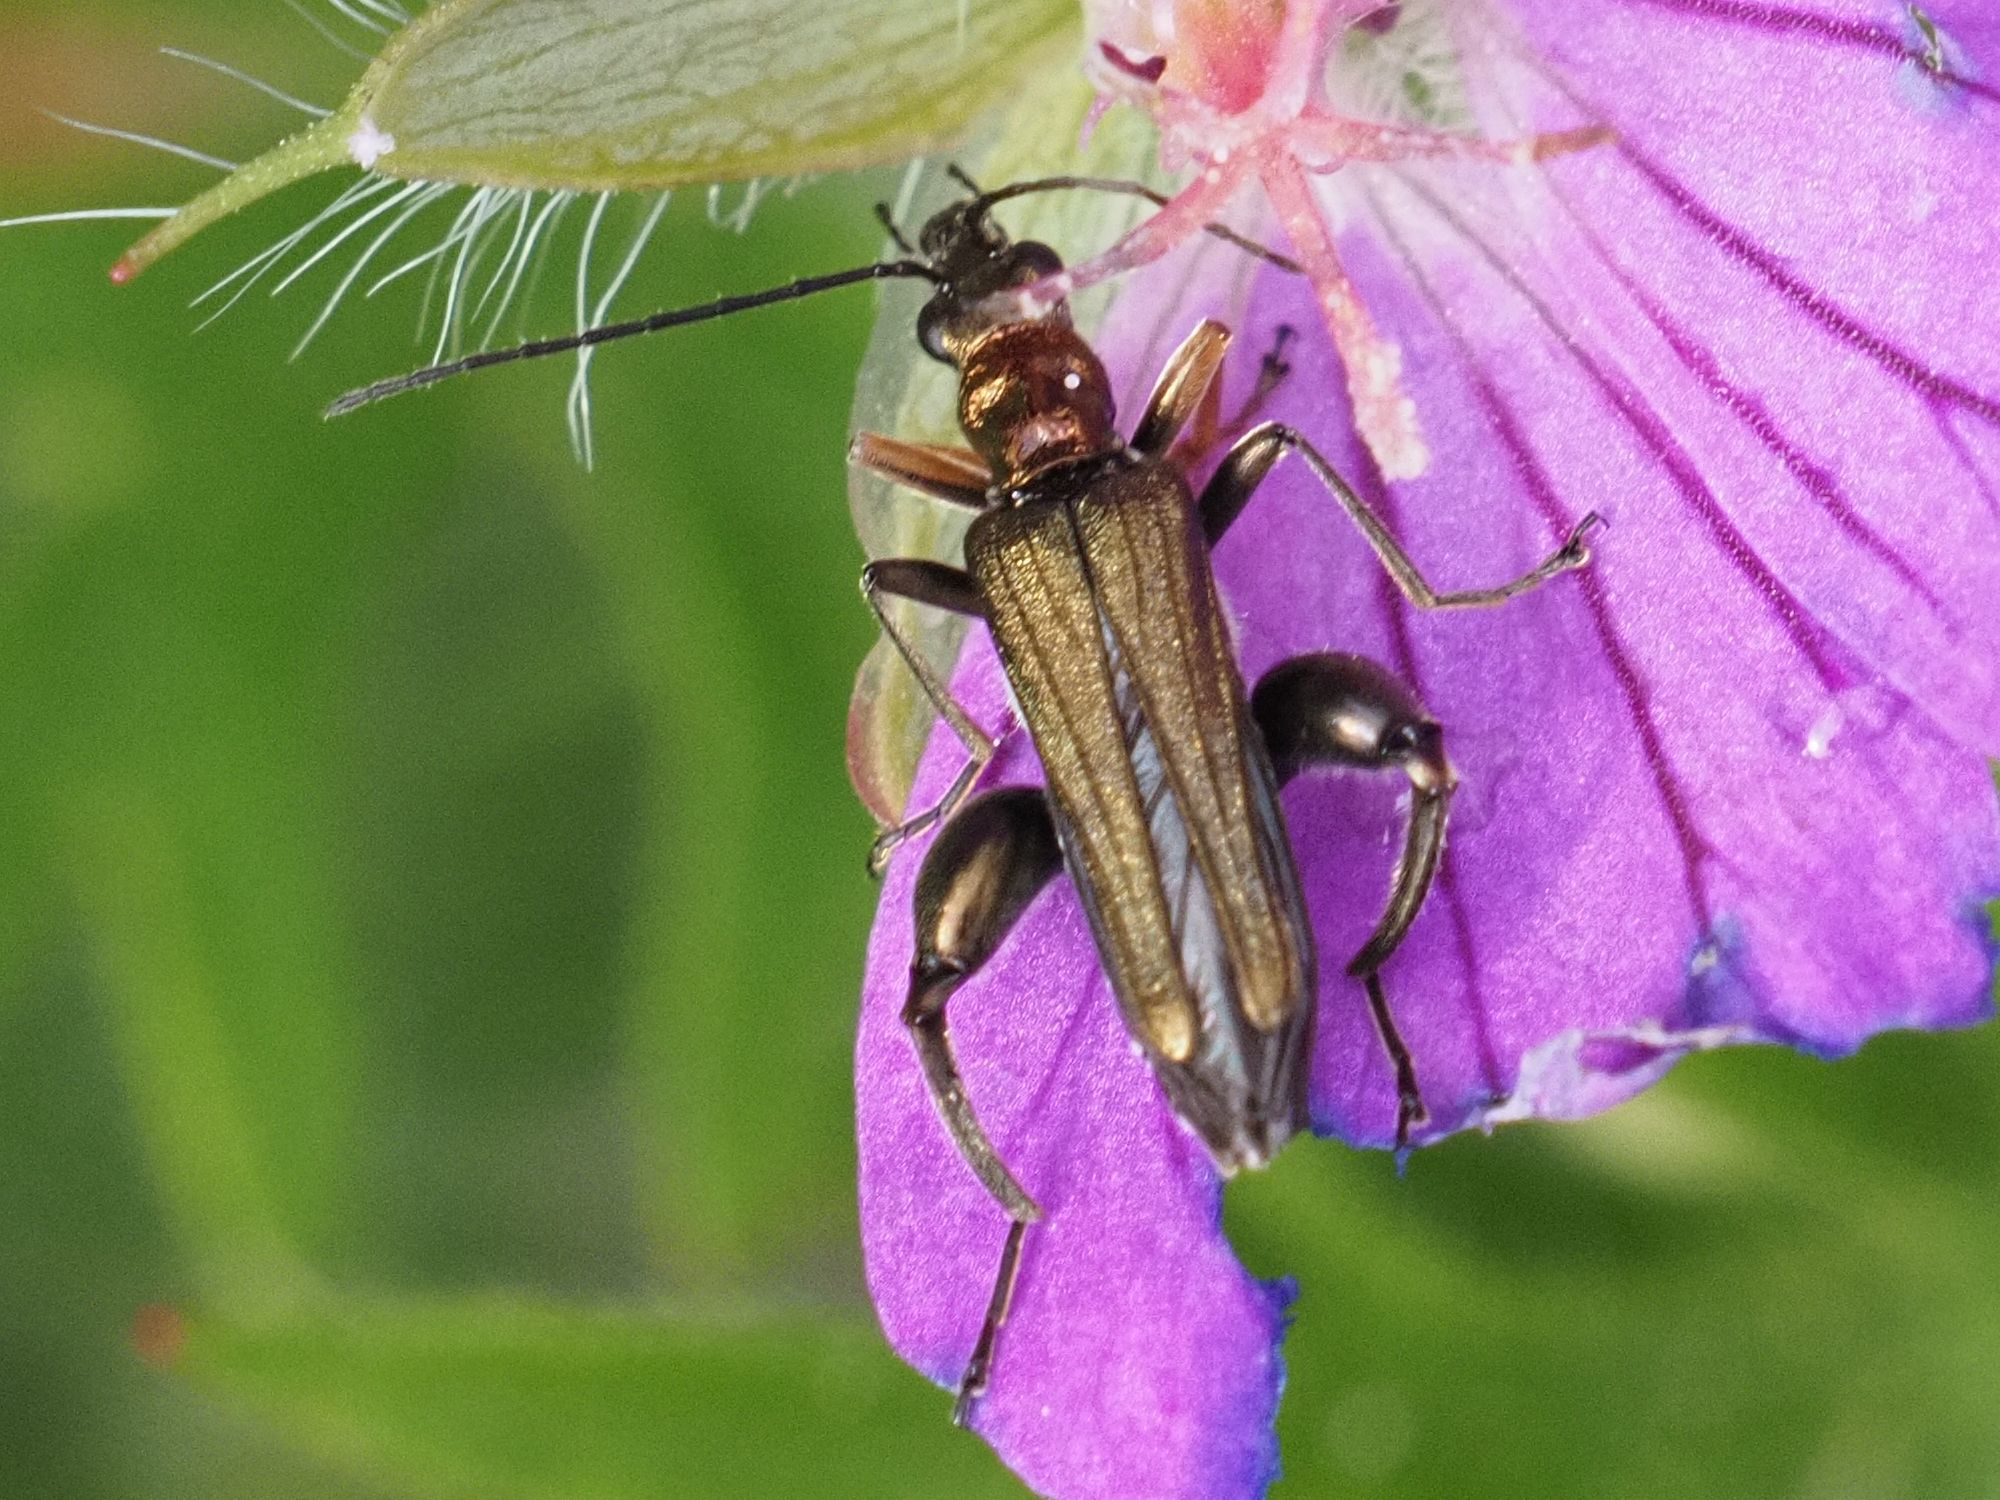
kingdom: Animalia
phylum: Arthropoda
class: Insecta
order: Coleoptera
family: Oedemeridae
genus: Oedemera
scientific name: Oedemera flavipes
